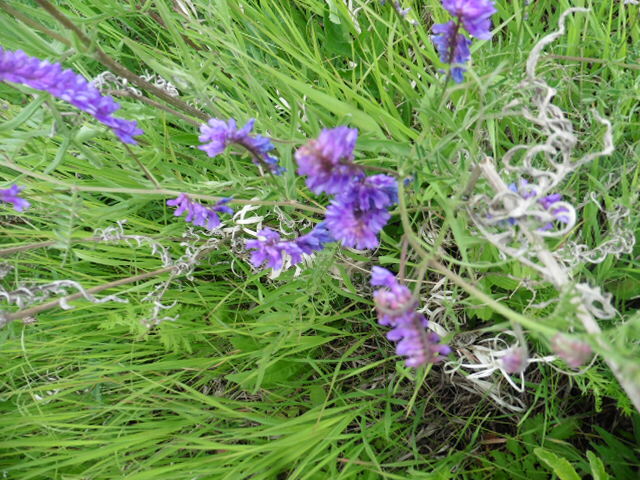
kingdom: Plantae
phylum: Tracheophyta
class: Magnoliopsida
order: Fabales
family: Fabaceae
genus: Vicia
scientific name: Vicia cracca
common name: Bird vetch
